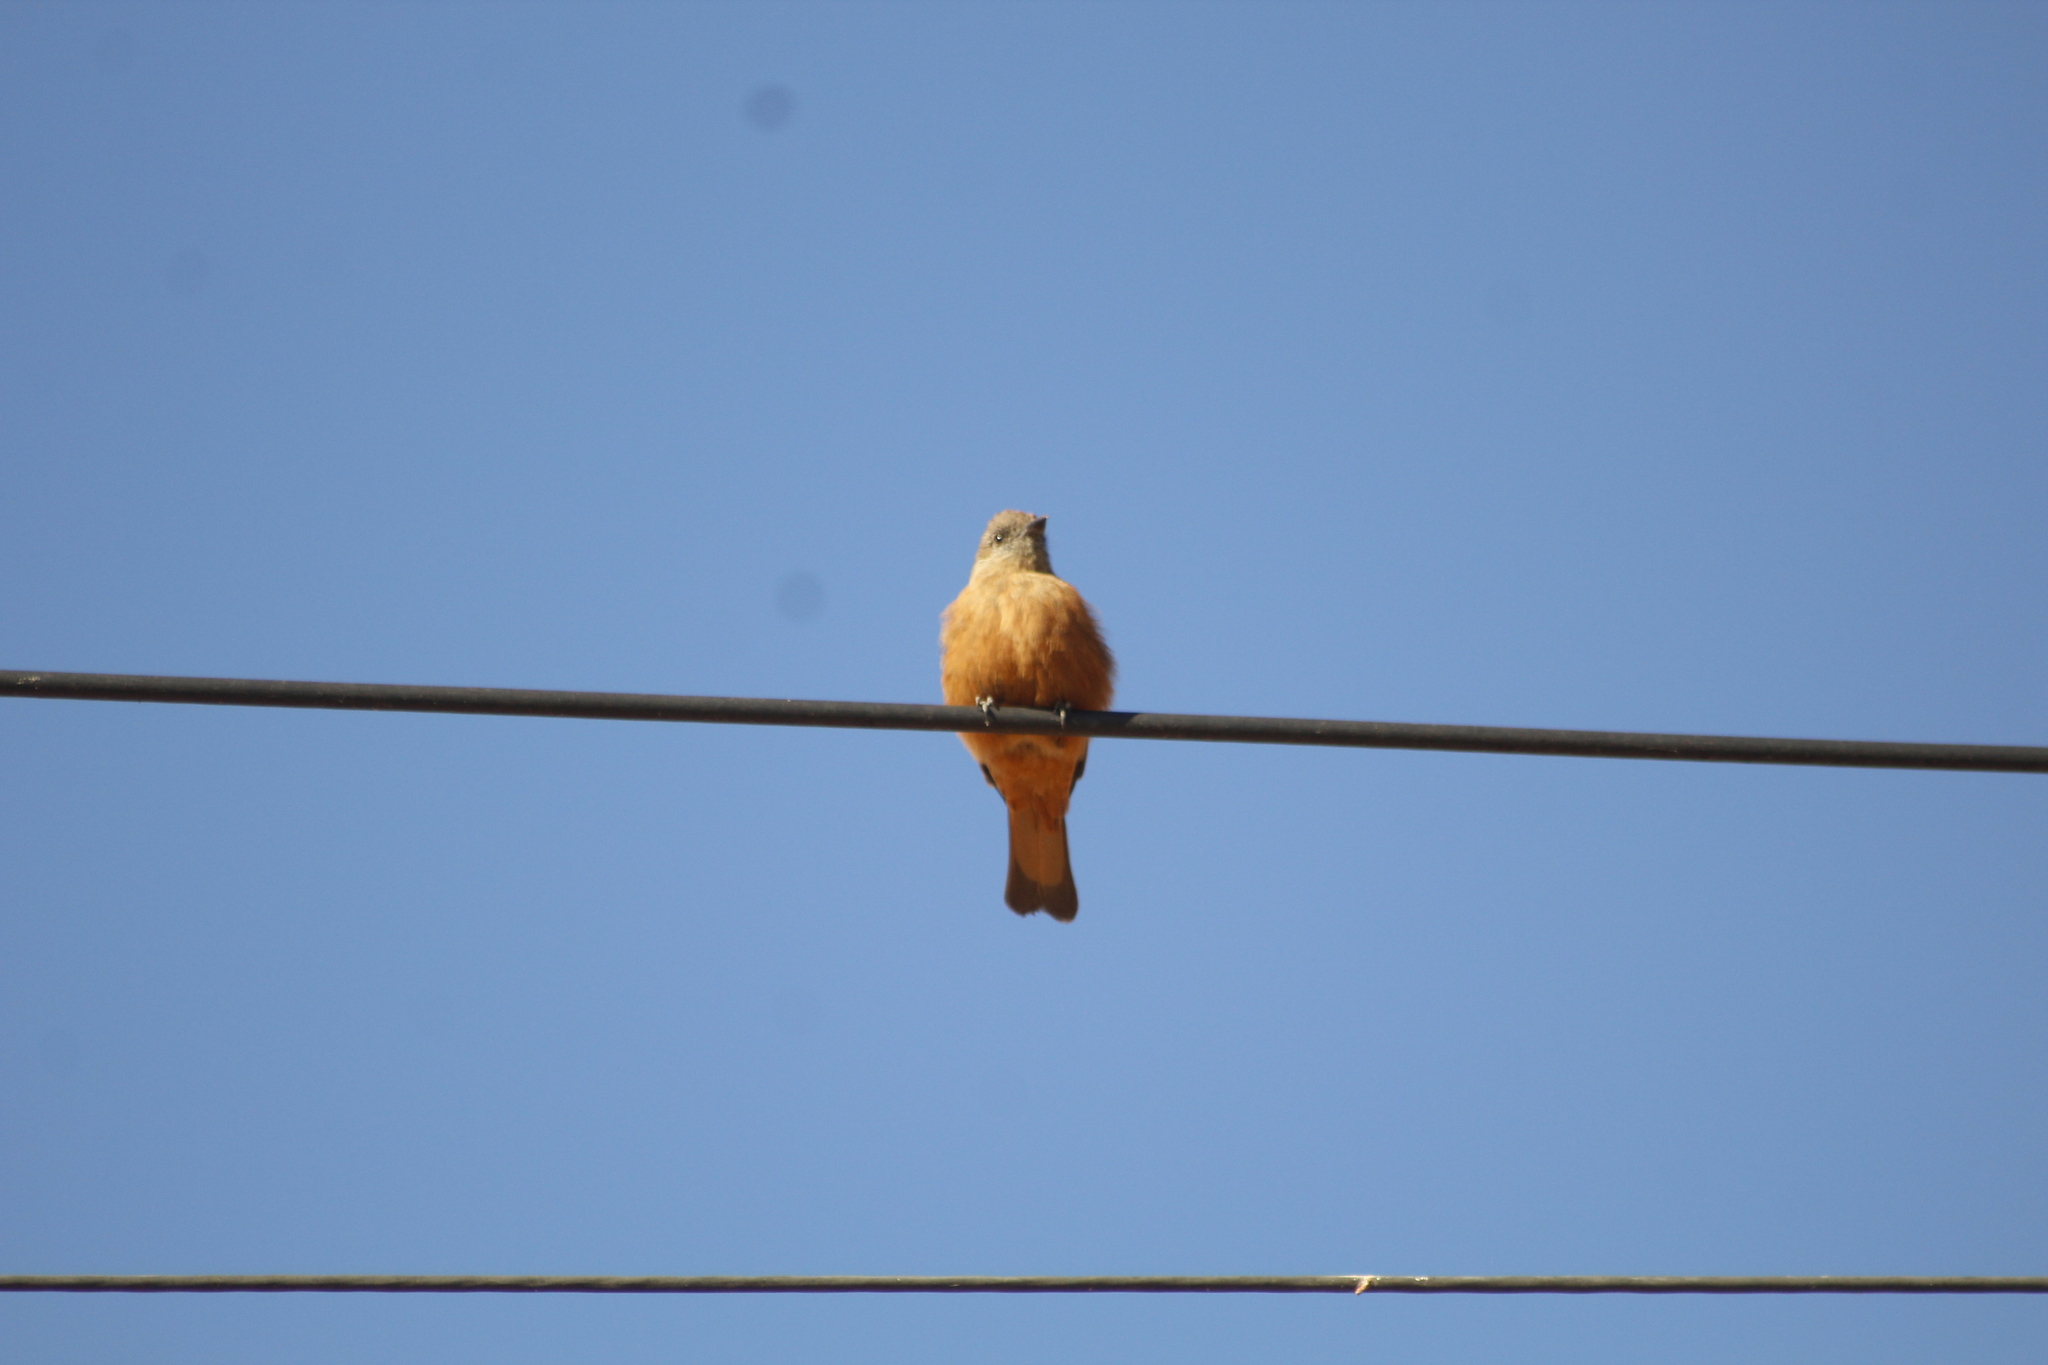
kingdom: Animalia
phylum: Chordata
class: Aves
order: Passeriformes
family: Tyrannidae
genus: Hirundinea
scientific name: Hirundinea ferruginea
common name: Cliff flycatcher
